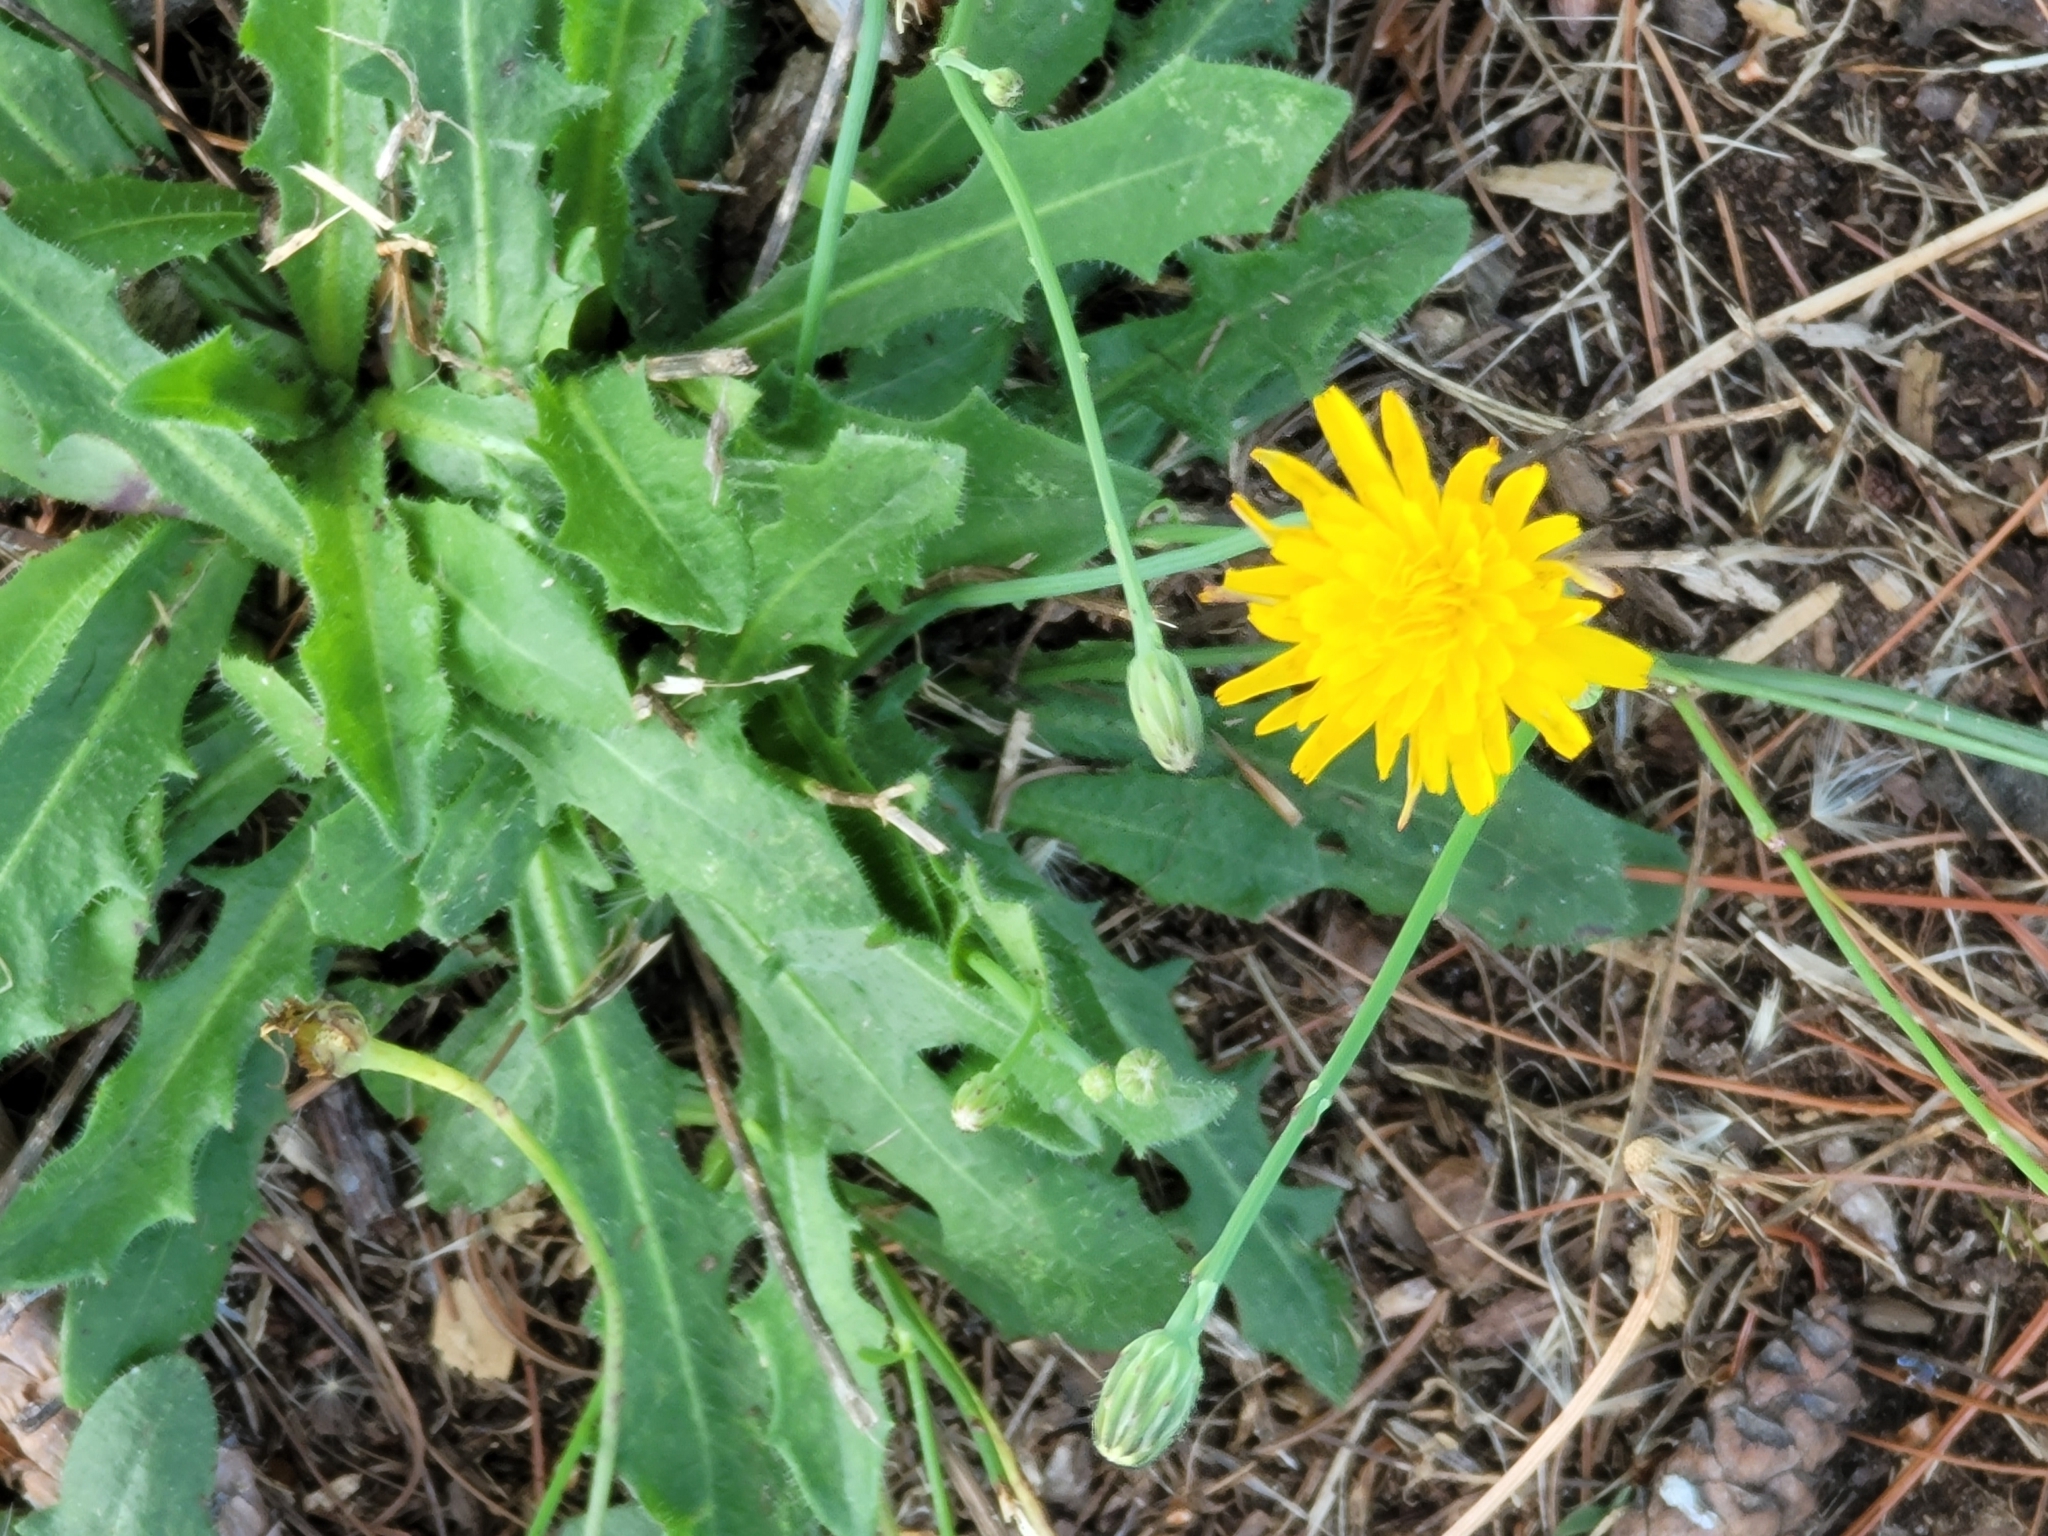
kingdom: Plantae
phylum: Tracheophyta
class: Magnoliopsida
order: Asterales
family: Asteraceae
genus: Hypochaeris
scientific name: Hypochaeris radicata
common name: Flatweed
